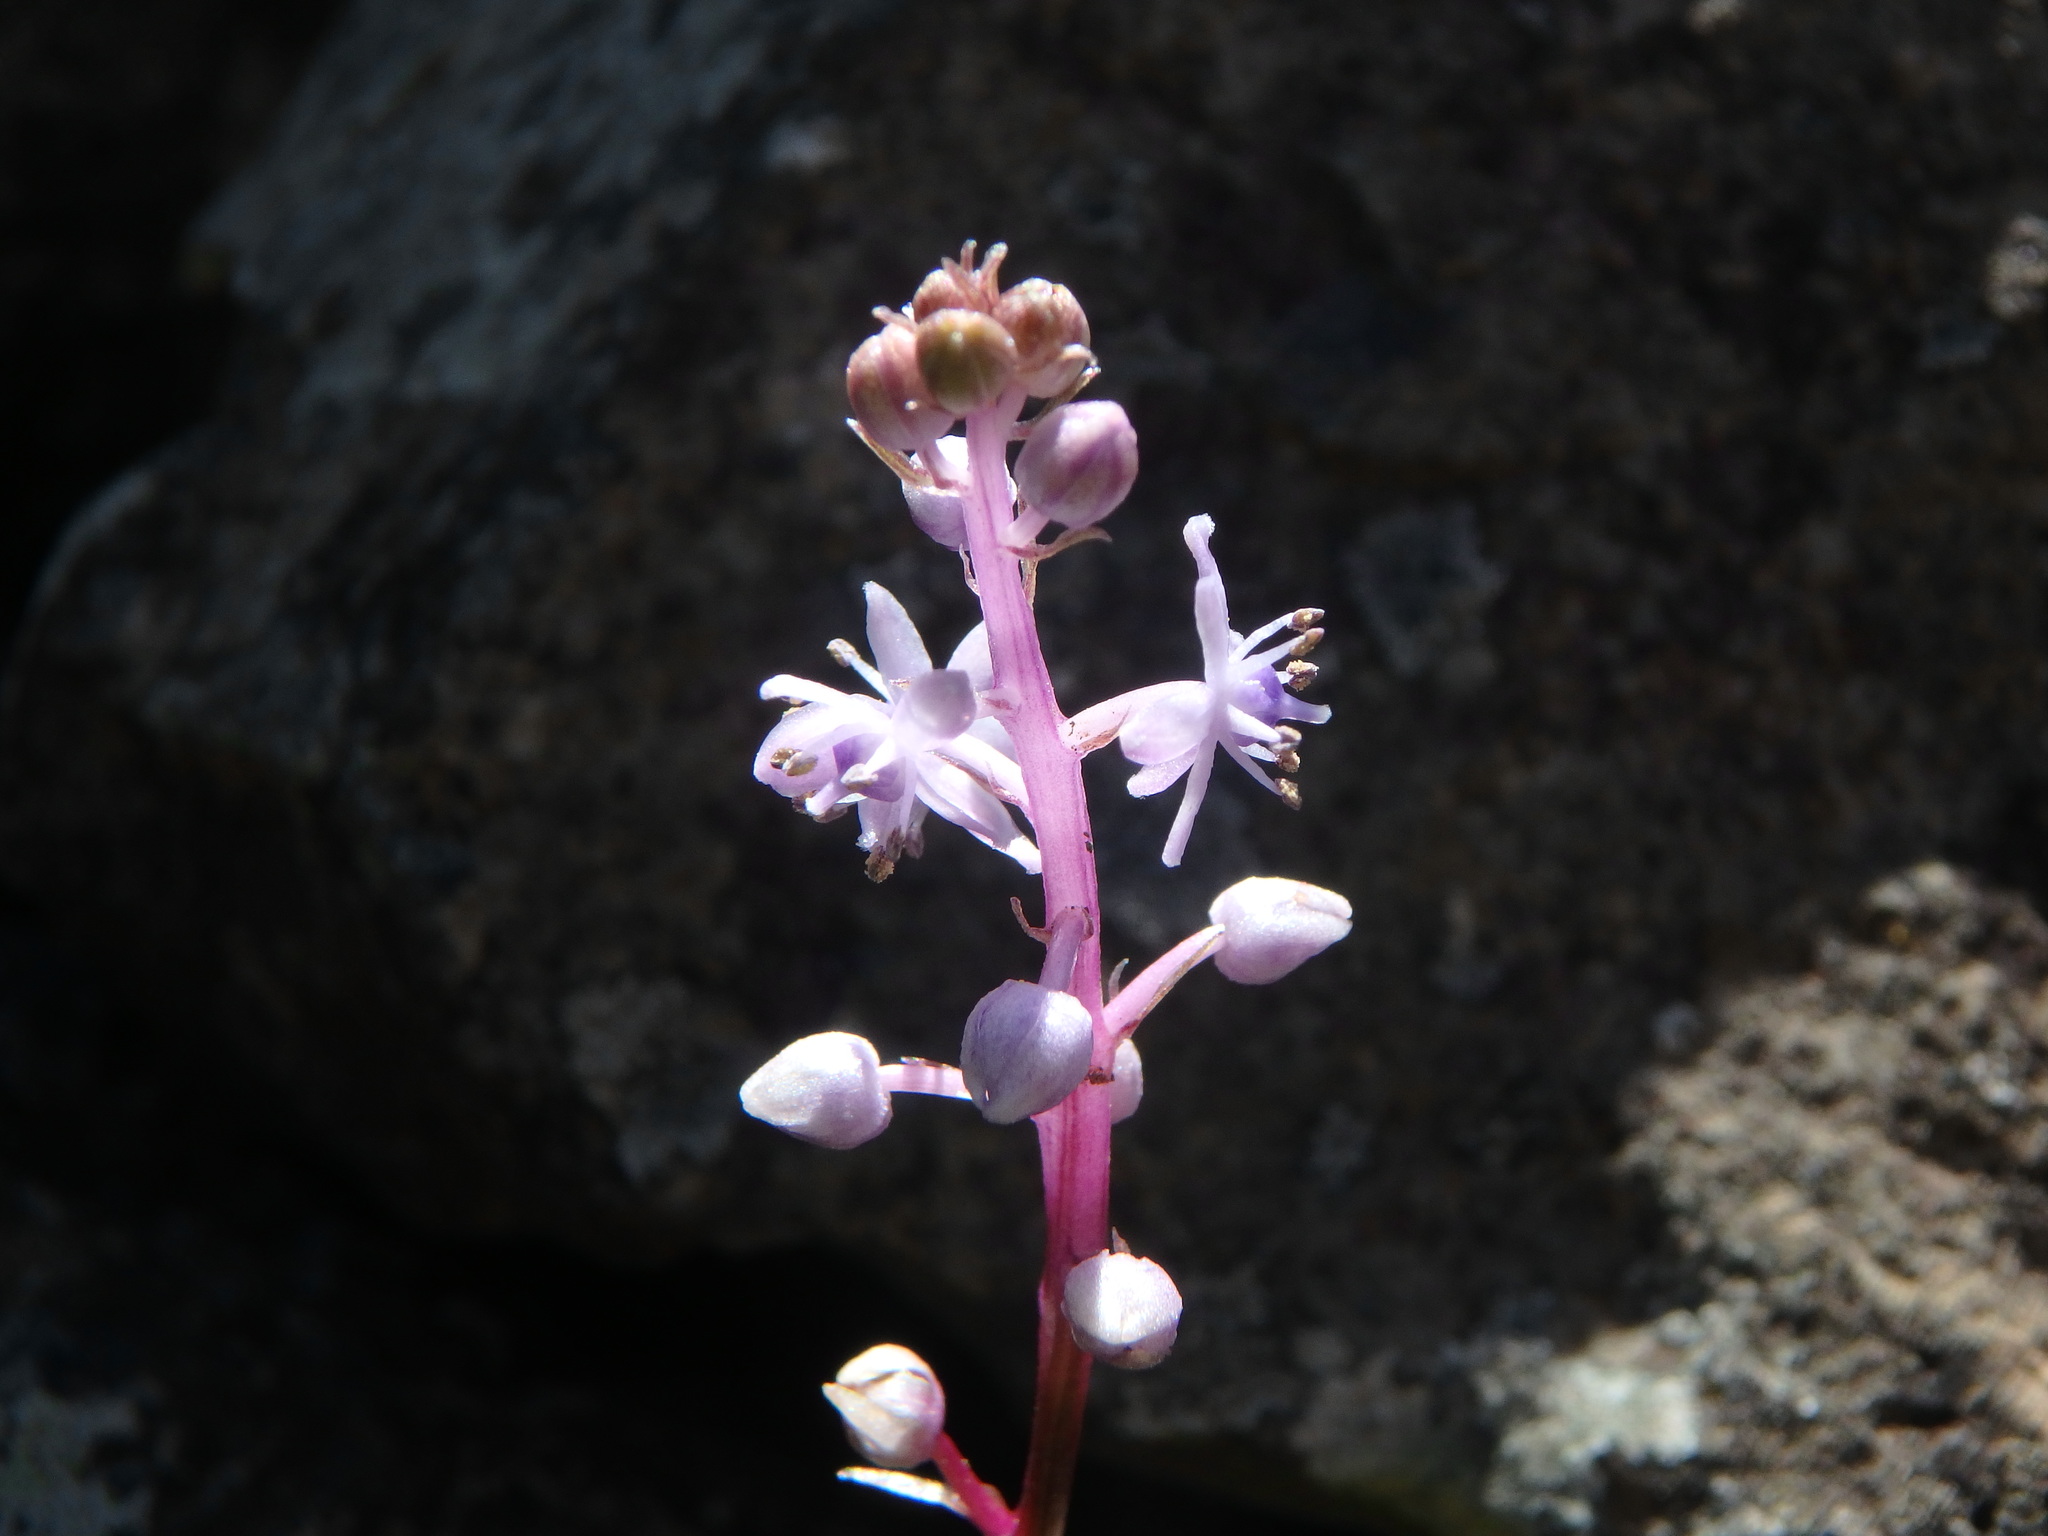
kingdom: Plantae
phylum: Tracheophyta
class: Liliopsida
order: Asparagales
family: Asparagaceae
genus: Scilla
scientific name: Scilla haemorrhoidalis
